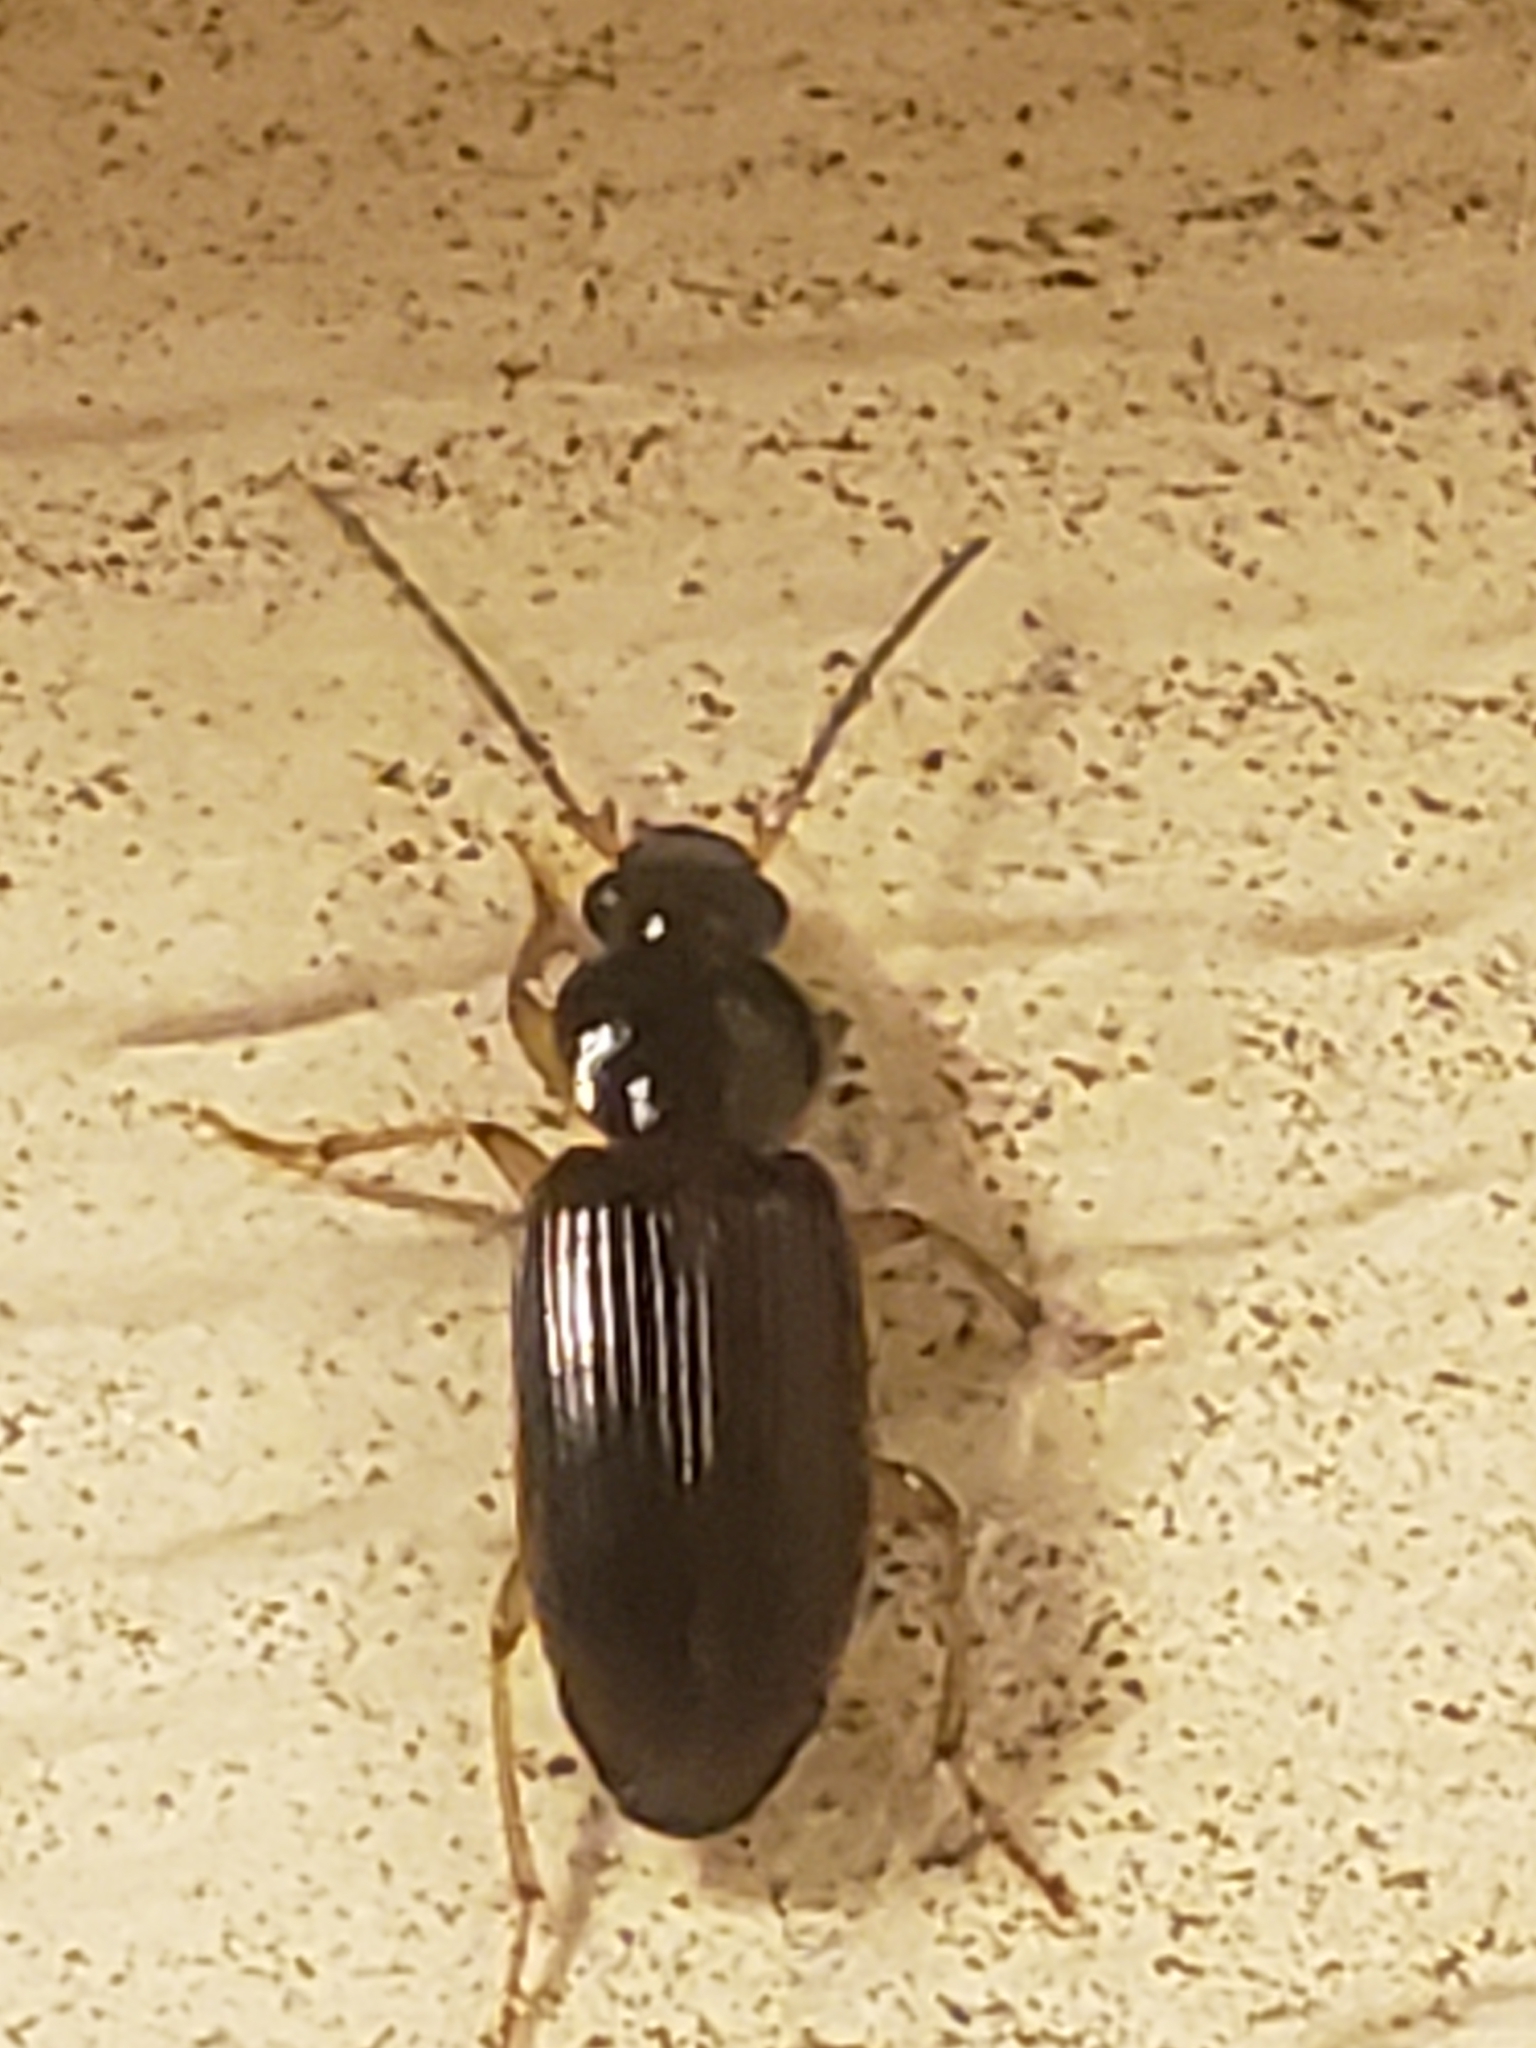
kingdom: Animalia
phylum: Arthropoda
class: Insecta
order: Coleoptera
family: Carabidae
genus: Stenolophus
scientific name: Stenolophus ochropezus
